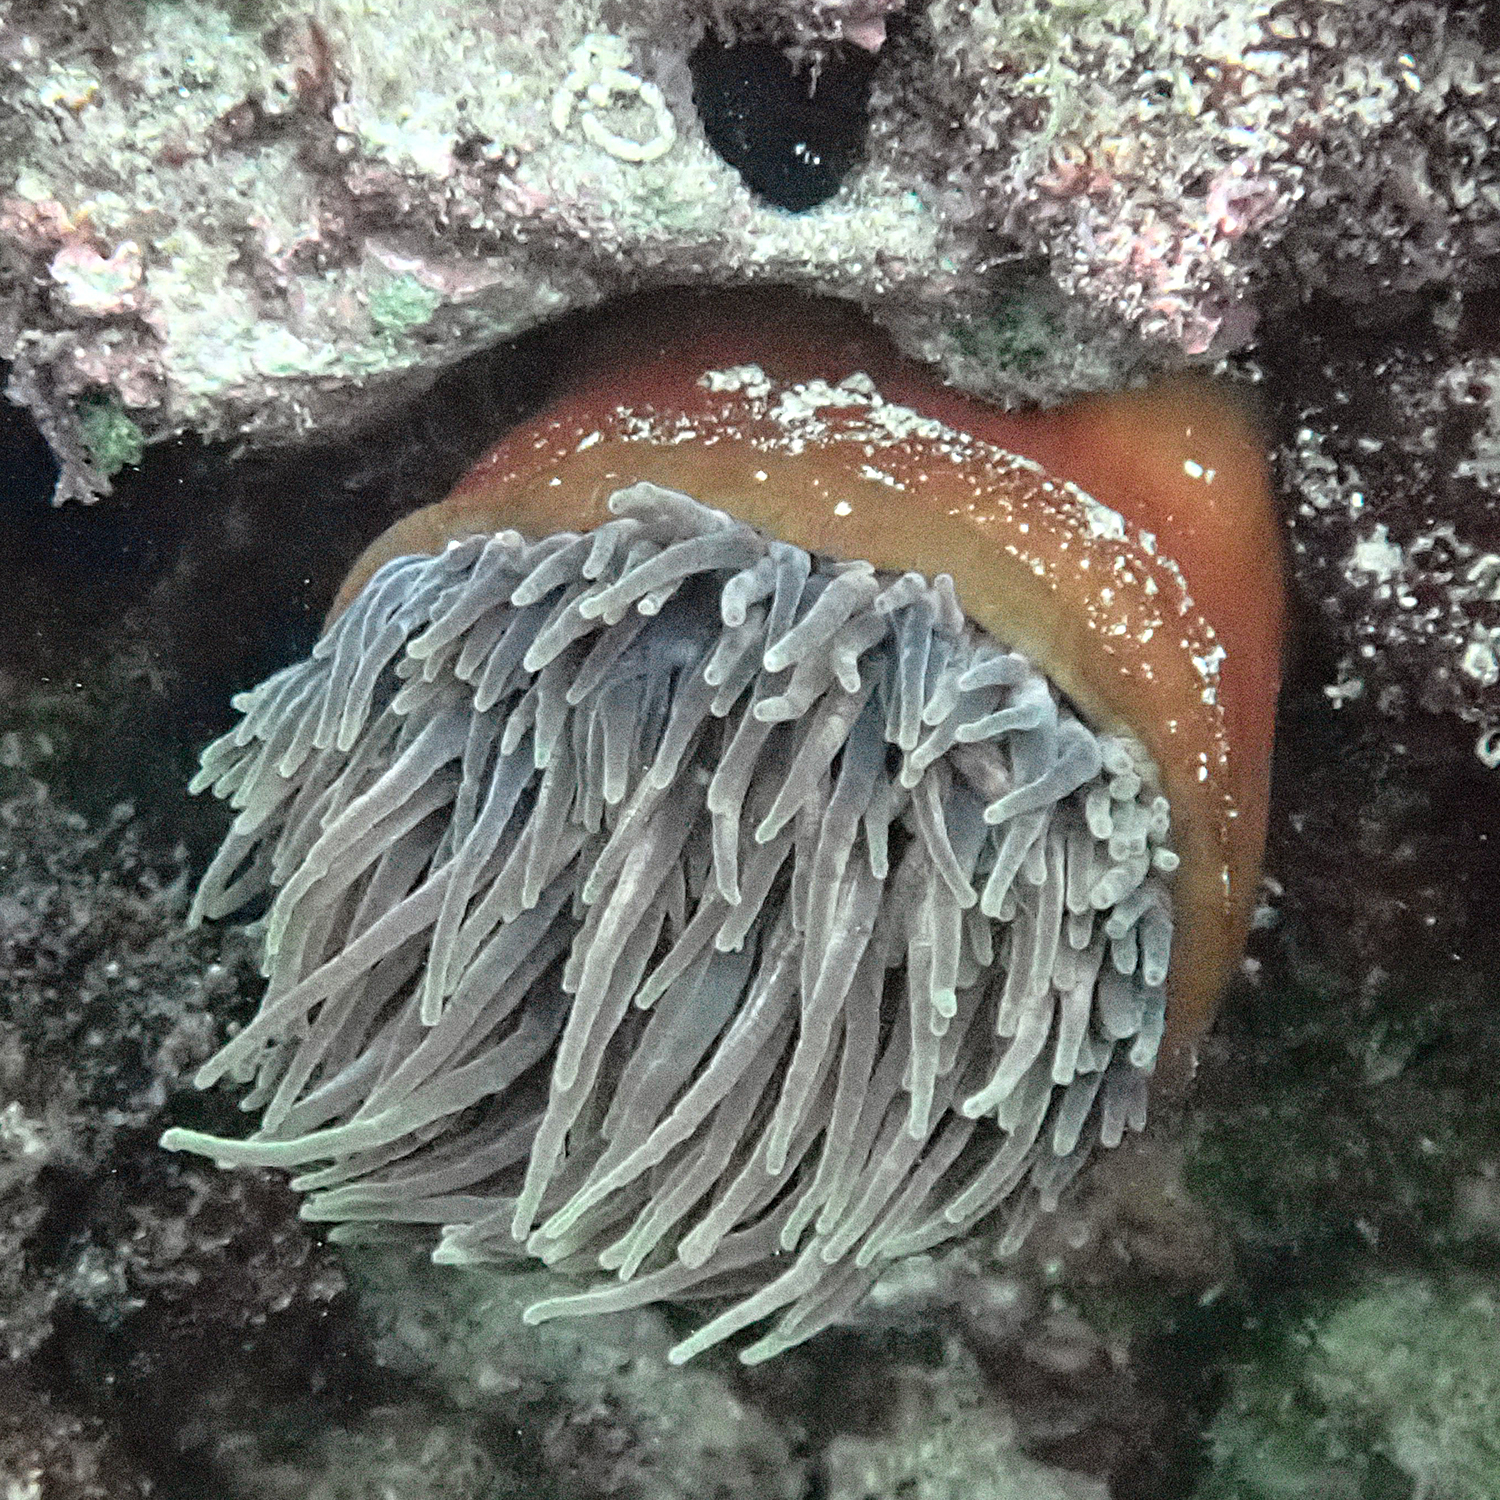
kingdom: Animalia
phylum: Cnidaria
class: Anthozoa
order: Actiniaria
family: Actiniidae
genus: Entacmaea
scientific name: Entacmaea quadricolor
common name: Bulb tentacle sea anemone
